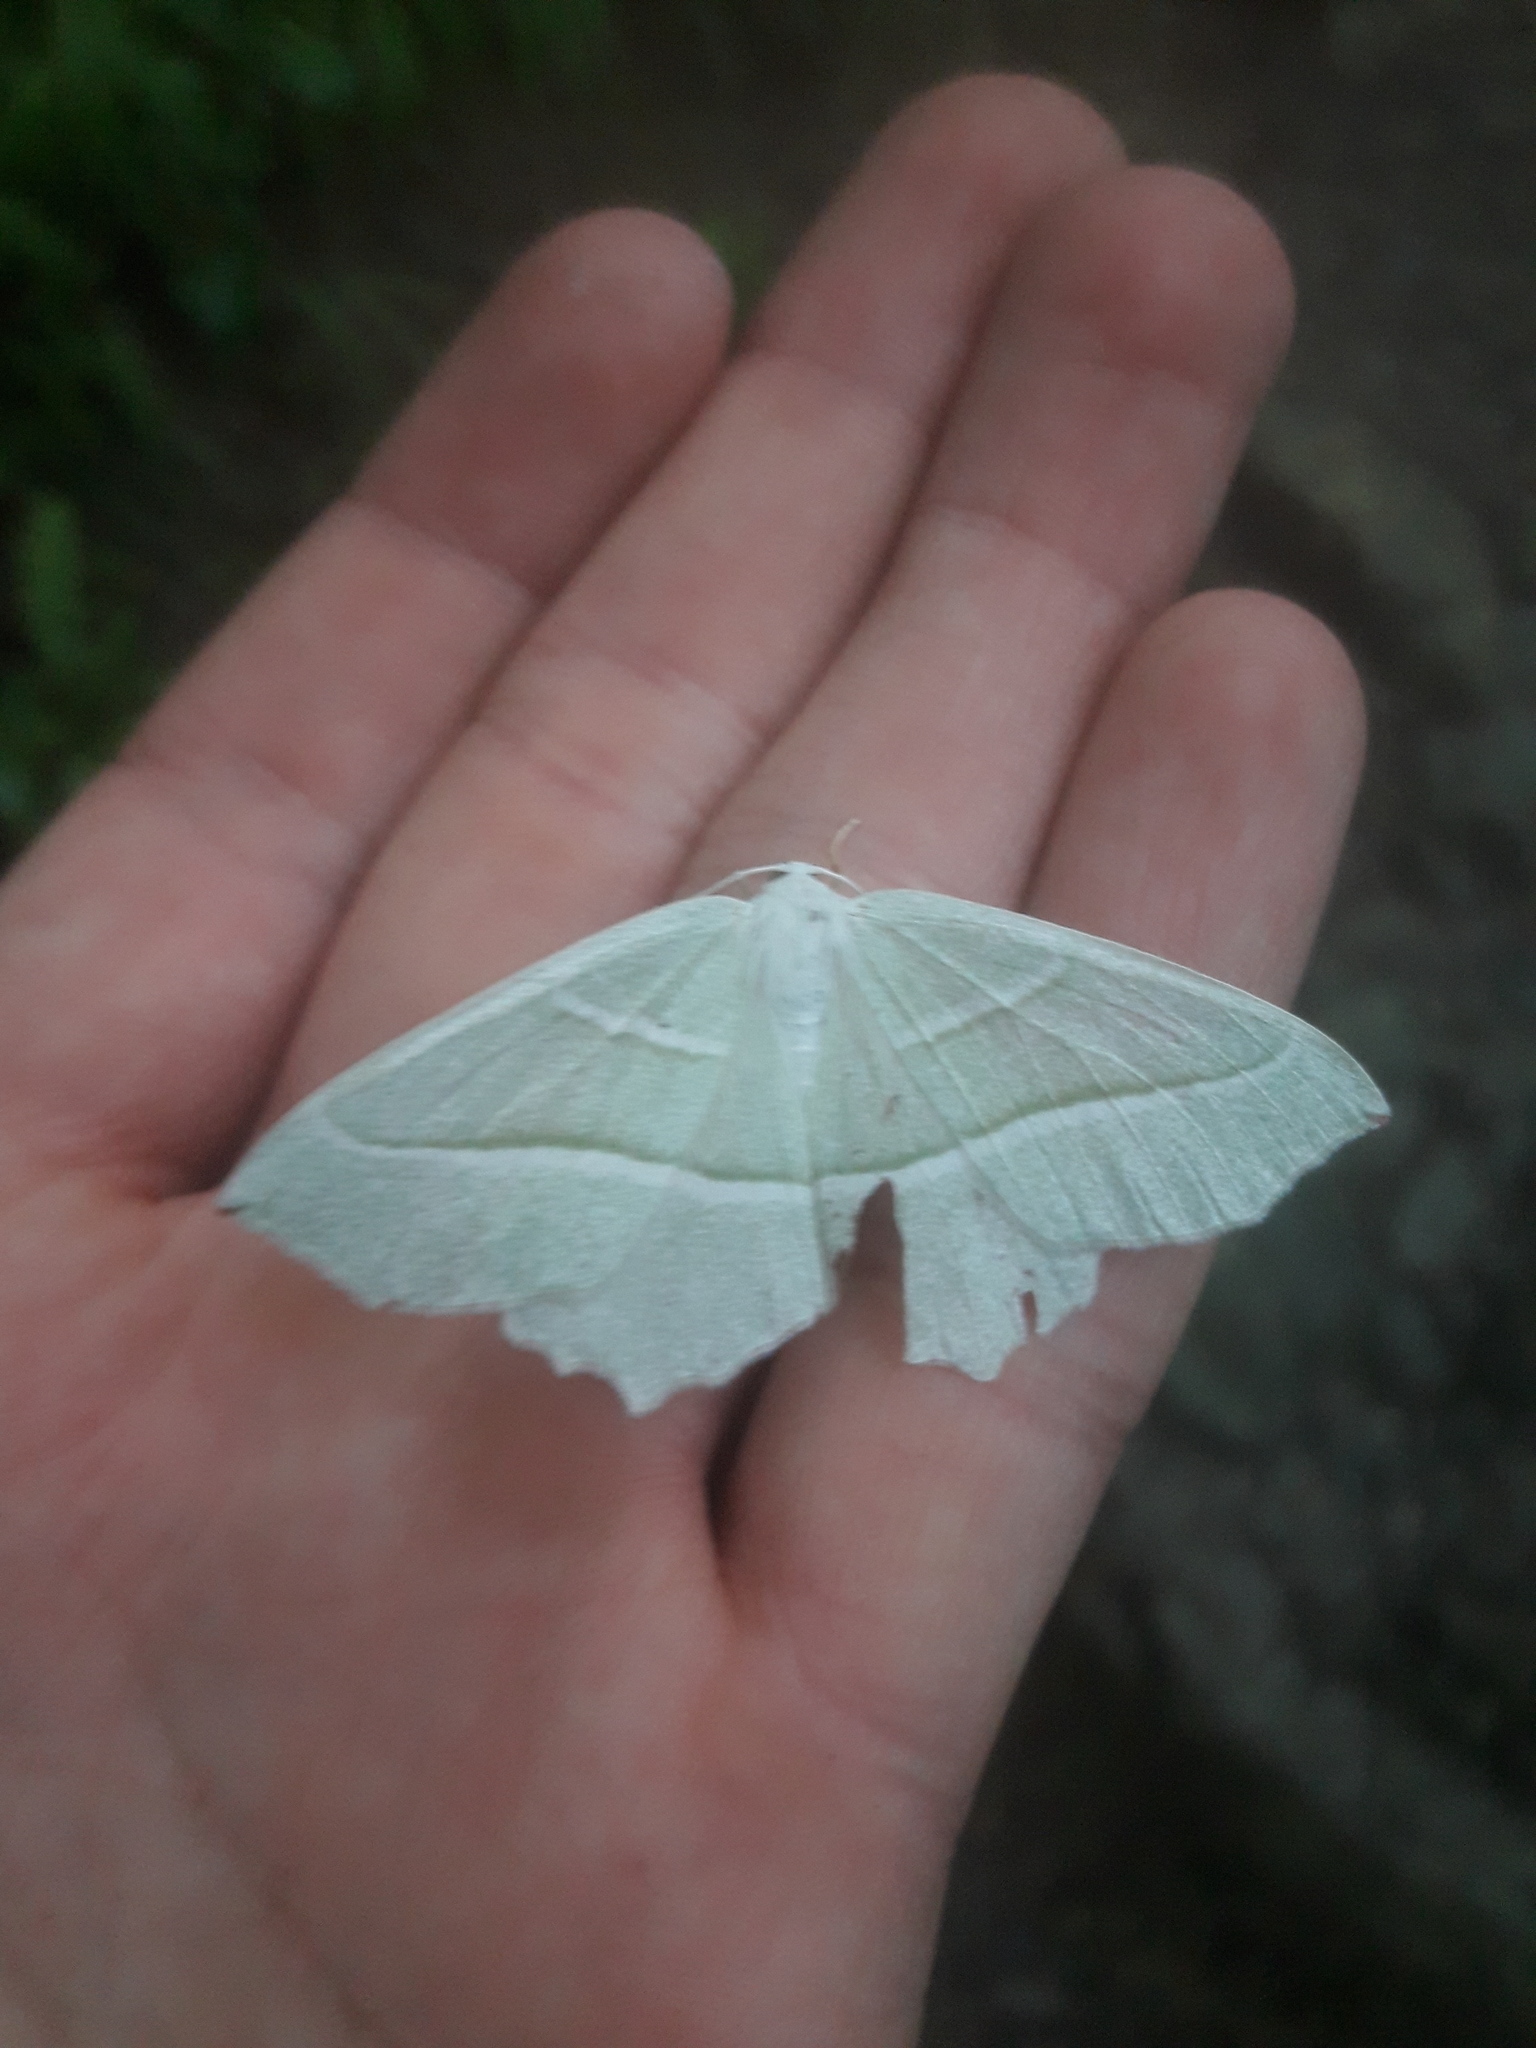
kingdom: Animalia
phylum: Arthropoda
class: Insecta
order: Lepidoptera
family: Geometridae
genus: Campaea
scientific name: Campaea margaritaria
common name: Light emerald
